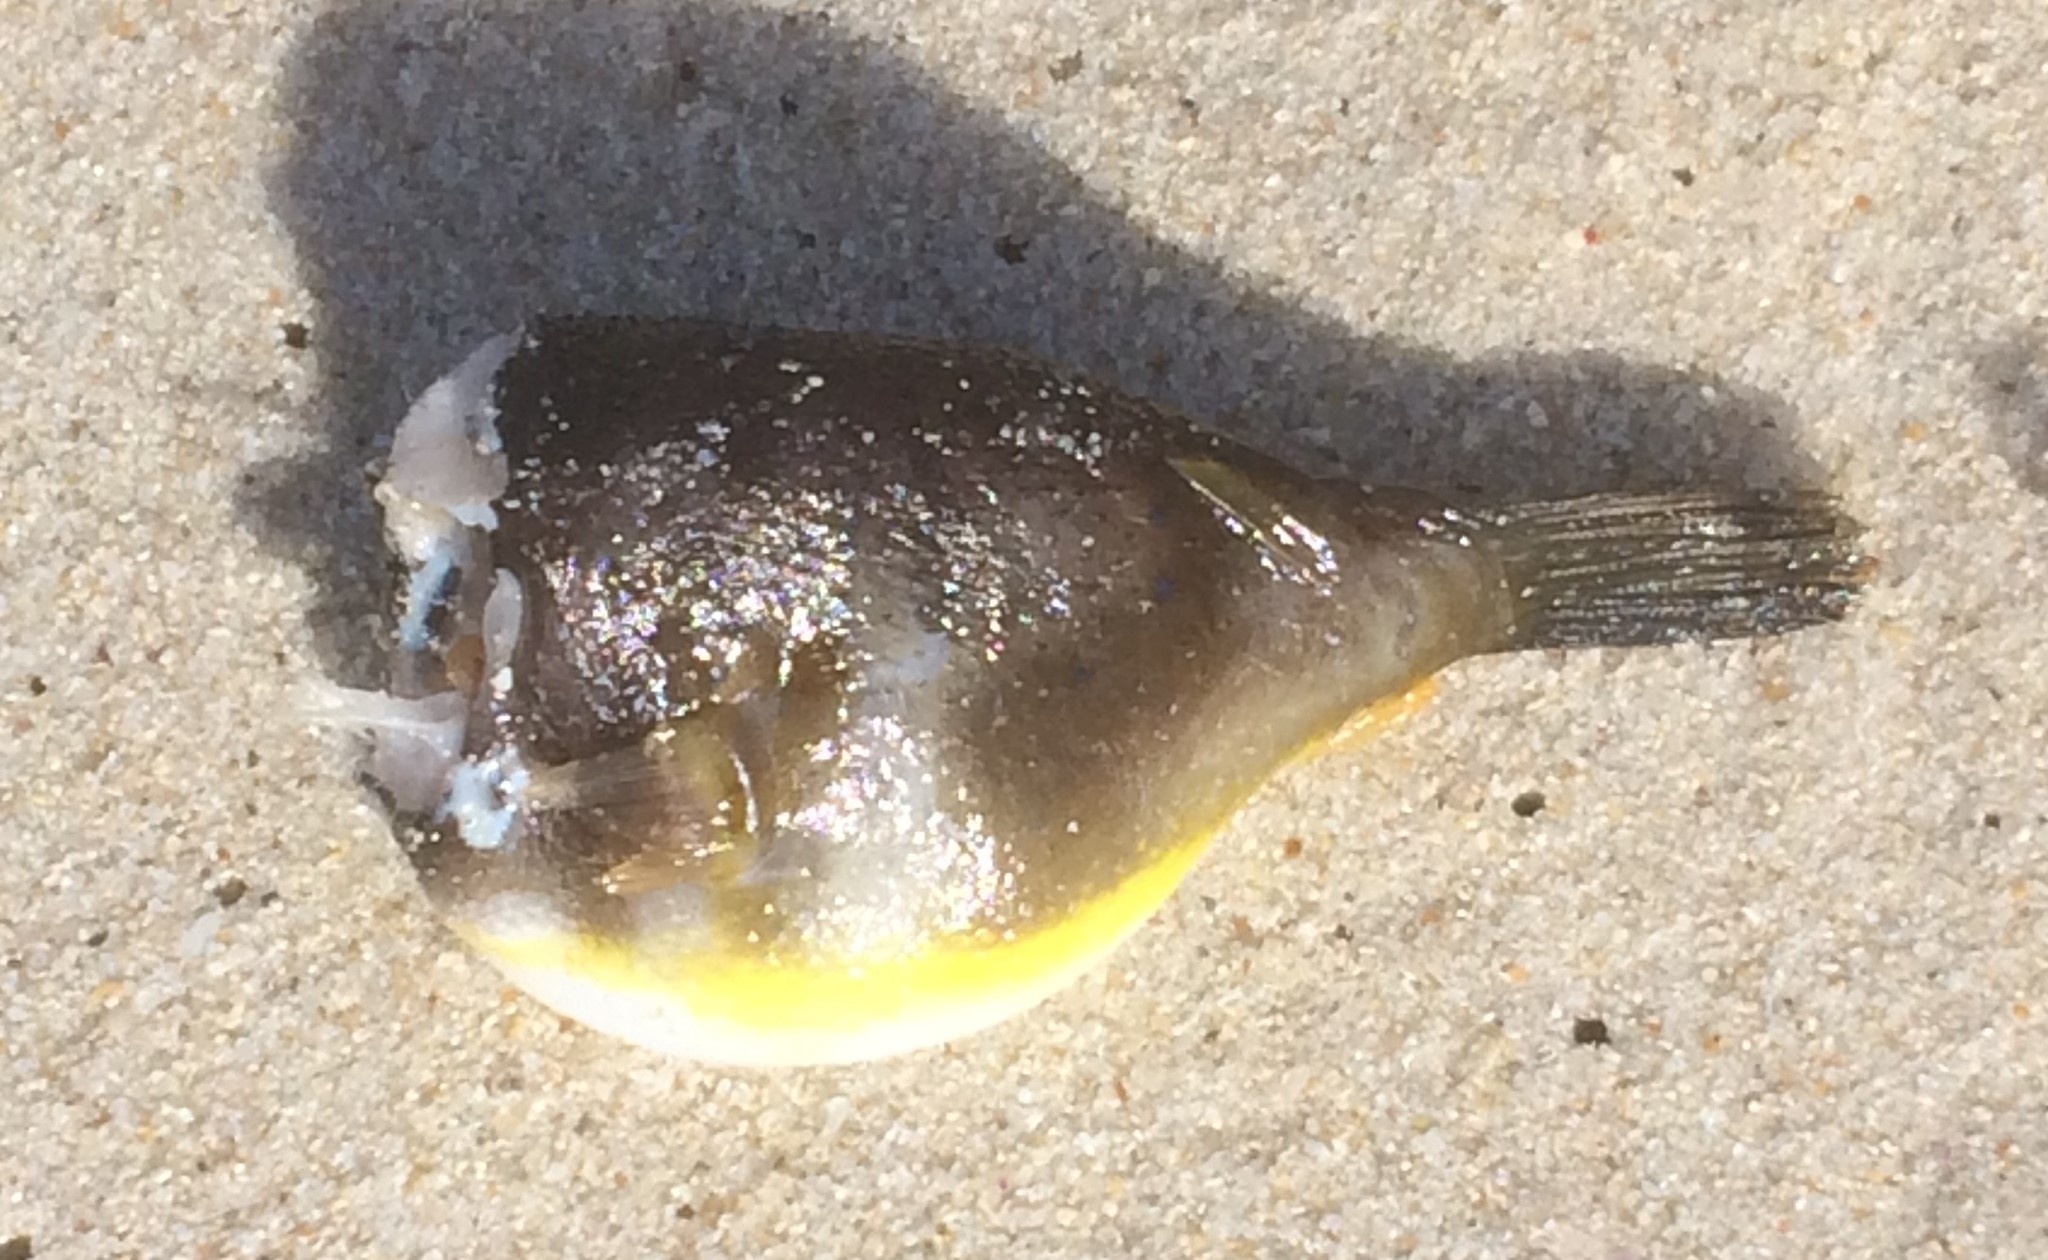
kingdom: Animalia
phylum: Chordata
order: Tetraodontiformes
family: Tetraodontidae
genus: Omegophora
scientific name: Omegophora cyanopunctata
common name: Bluespotted toadfish
